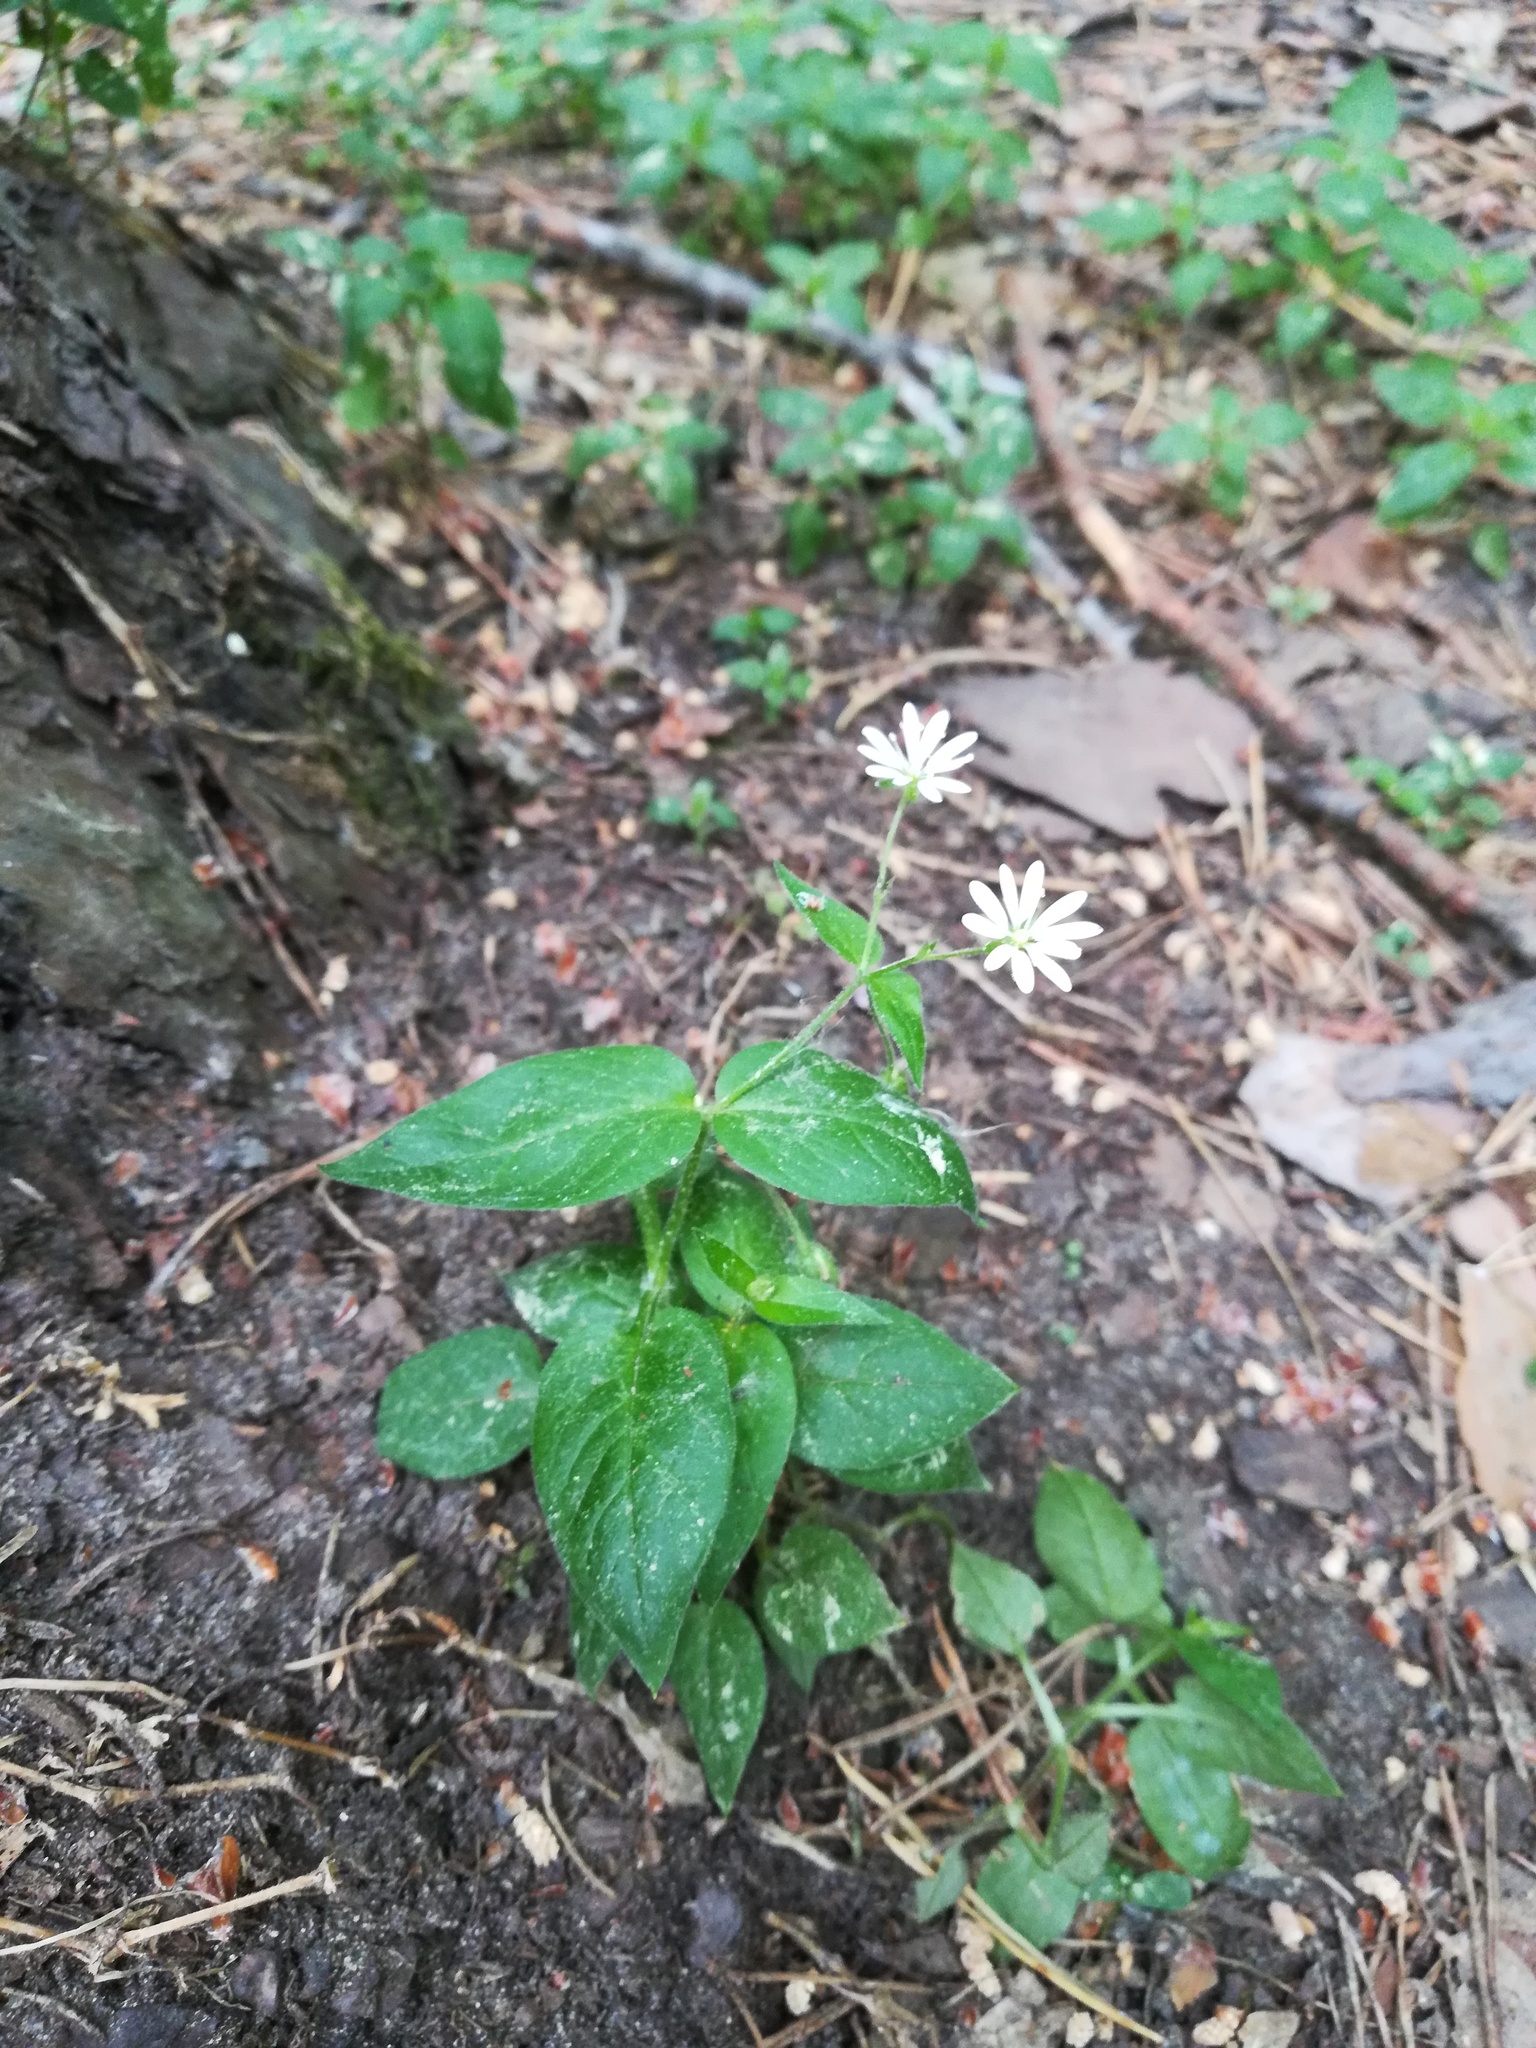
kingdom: Plantae
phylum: Tracheophyta
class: Magnoliopsida
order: Caryophyllales
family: Caryophyllaceae
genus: Stellaria
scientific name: Stellaria nemorum
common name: Wood stitchwort
